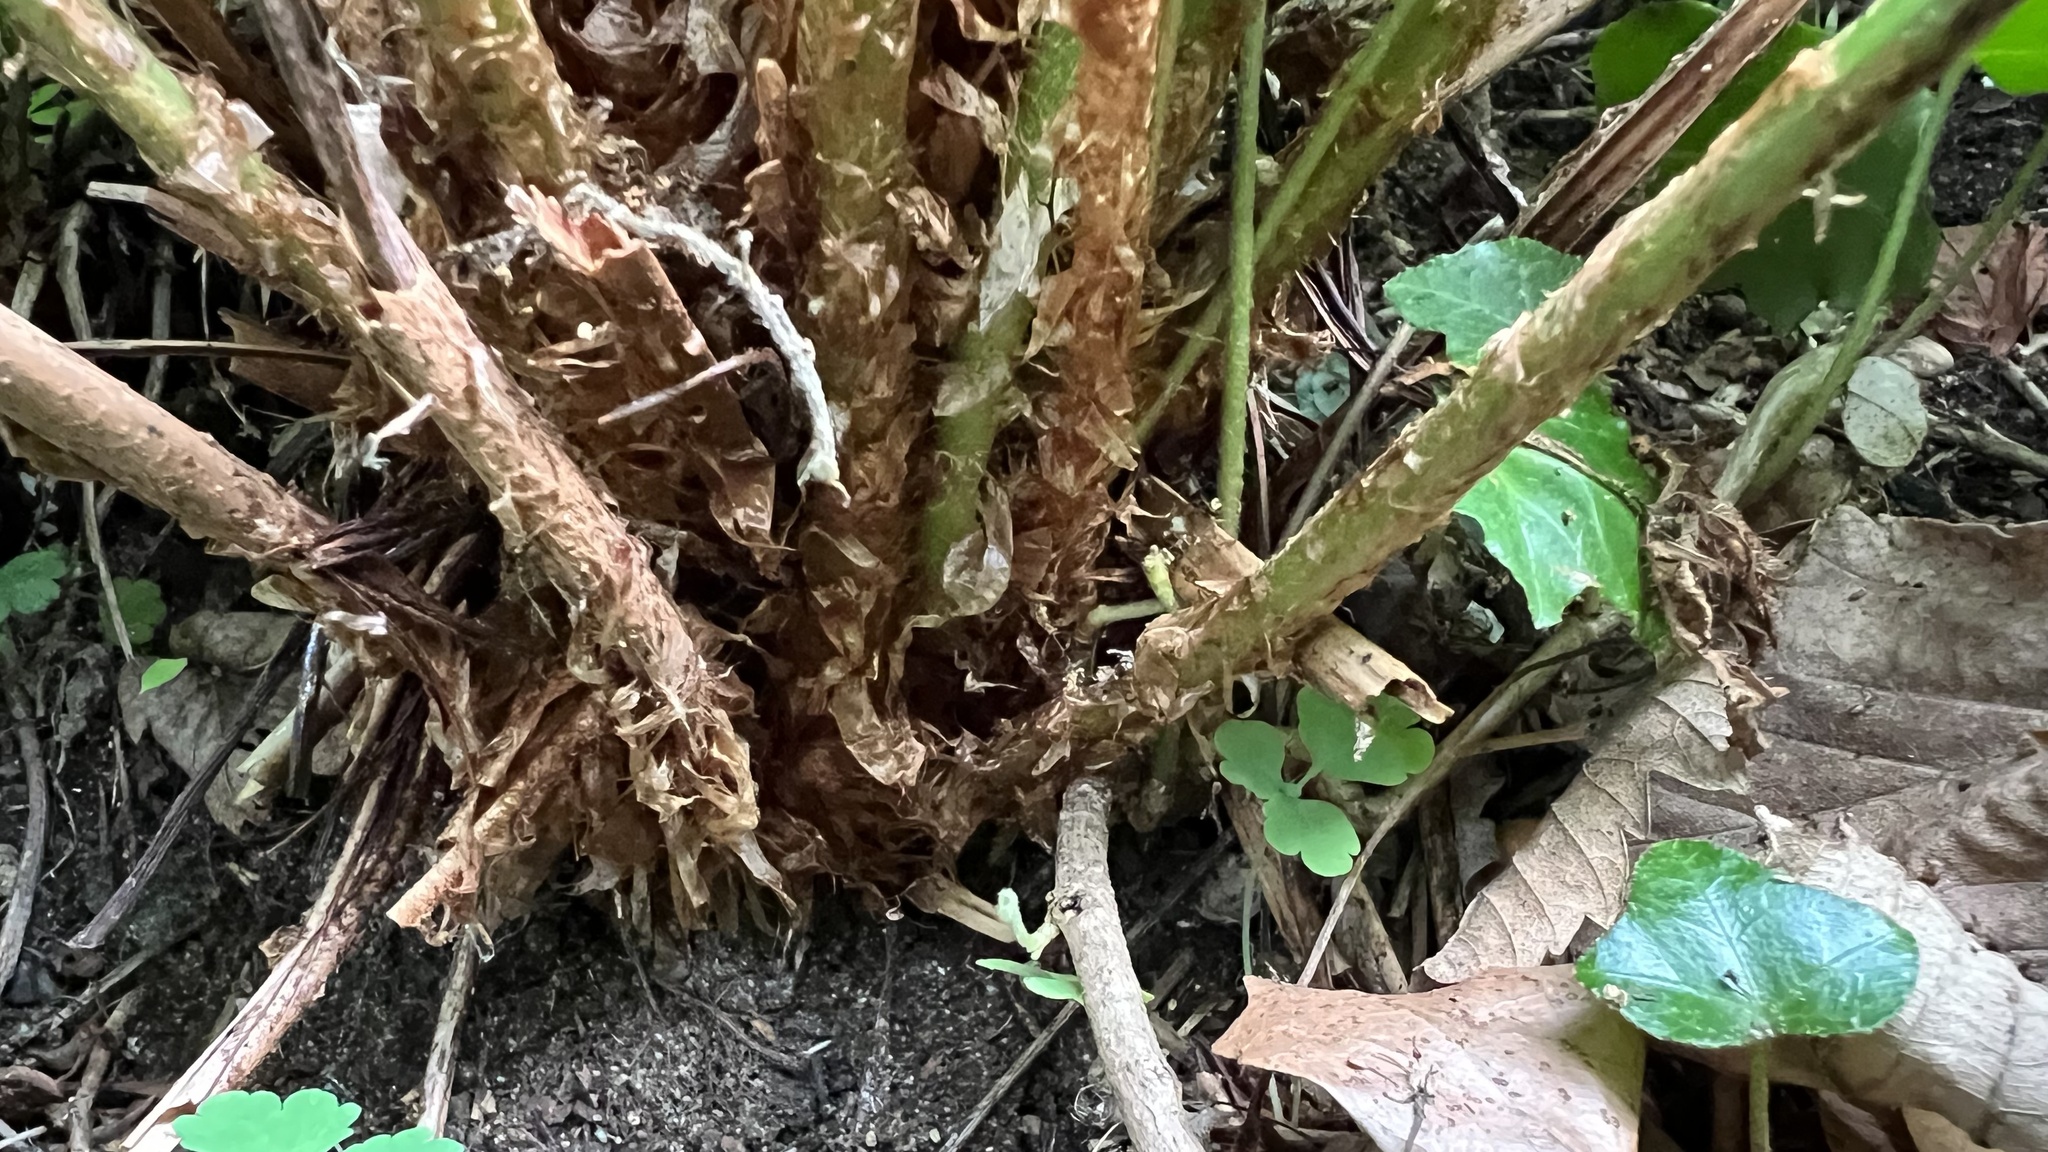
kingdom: Plantae
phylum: Tracheophyta
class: Polypodiopsida
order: Polypodiales
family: Dryopteridaceae
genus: Dryopteris
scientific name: Dryopteris filix-mas
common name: Male fern
